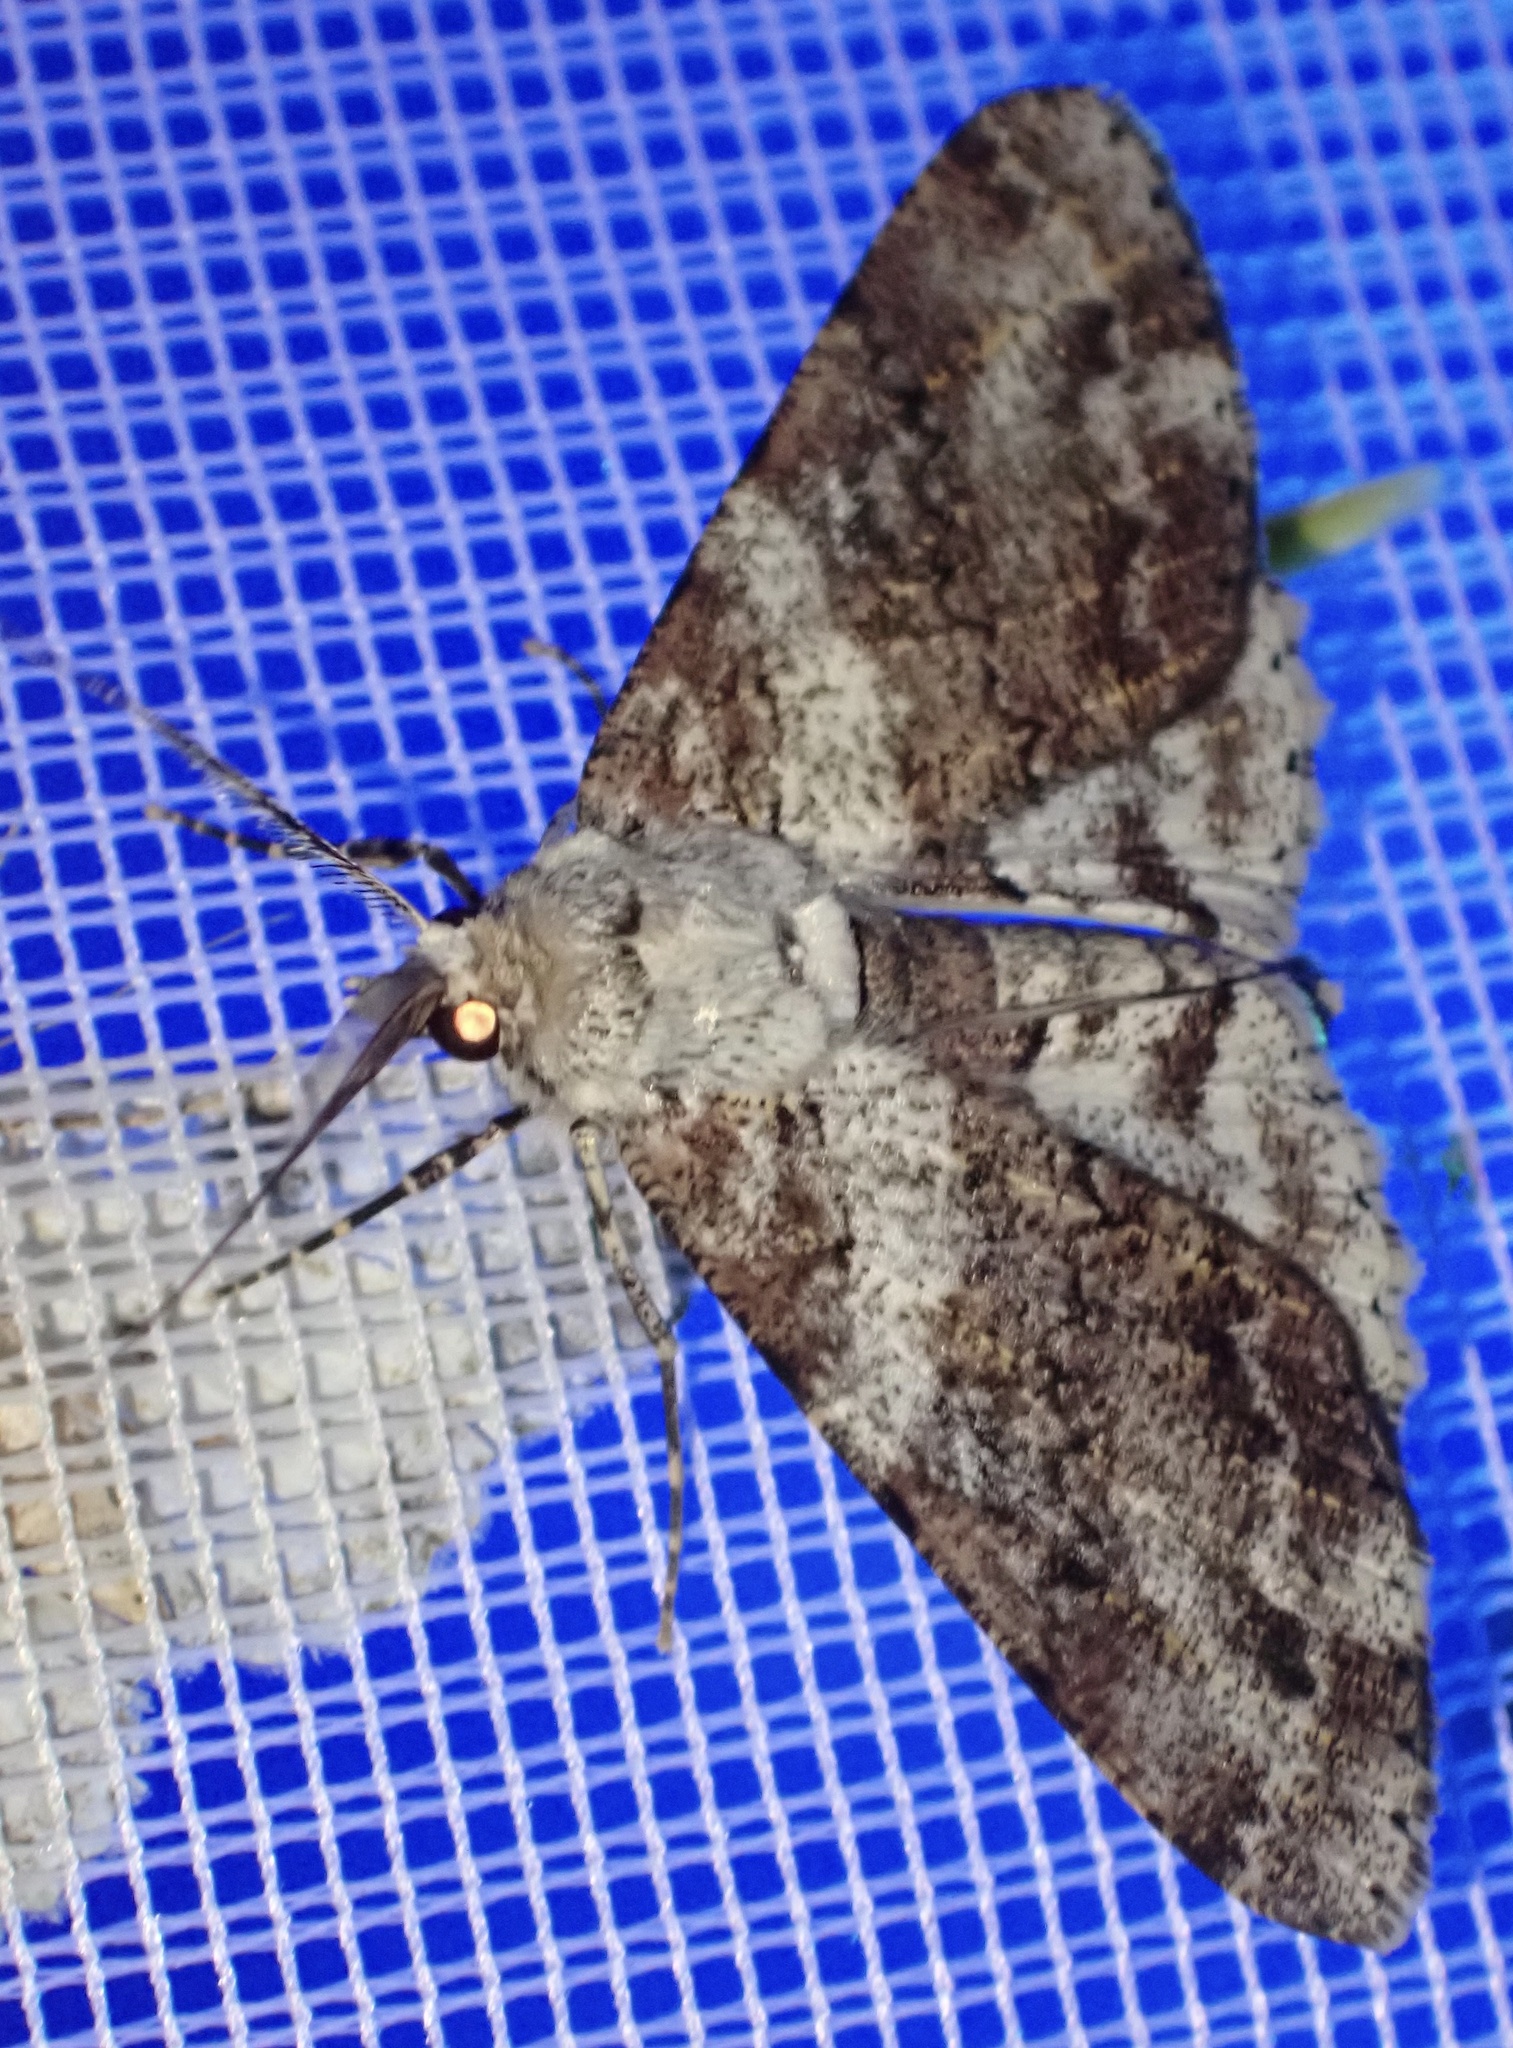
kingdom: Animalia
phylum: Arthropoda
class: Insecta
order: Lepidoptera
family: Geometridae
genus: Cleora
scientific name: Cleora repetita
